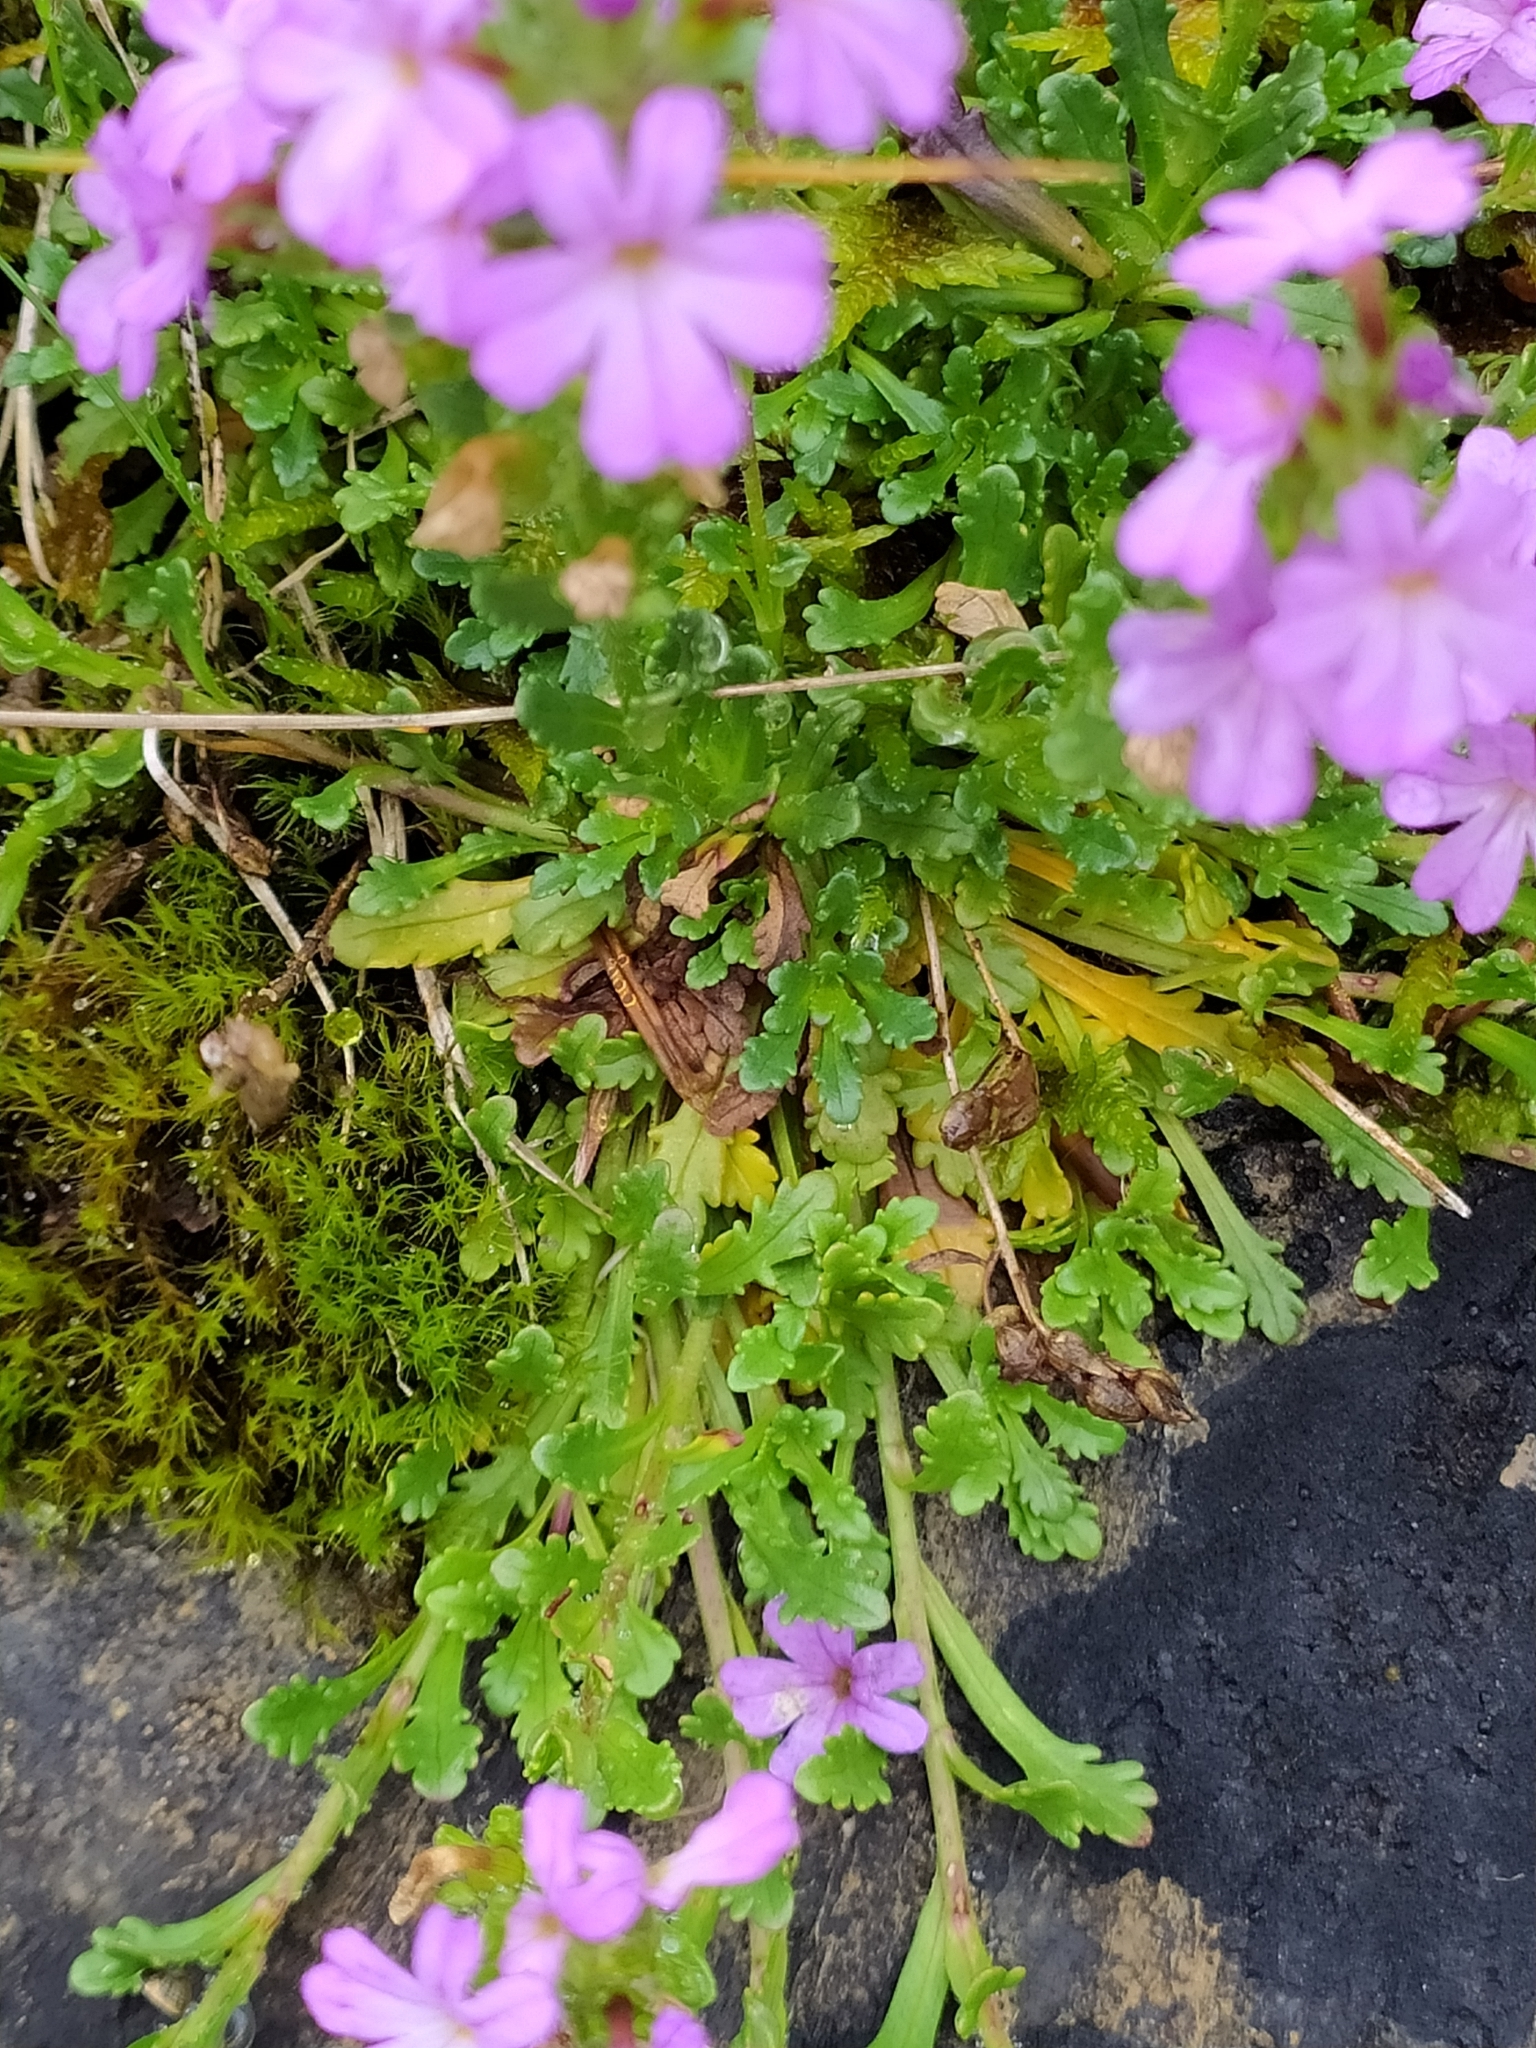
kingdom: Plantae
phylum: Tracheophyta
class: Magnoliopsida
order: Lamiales
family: Plantaginaceae
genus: Erinus
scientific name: Erinus alpinus
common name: Fairy foxglove
